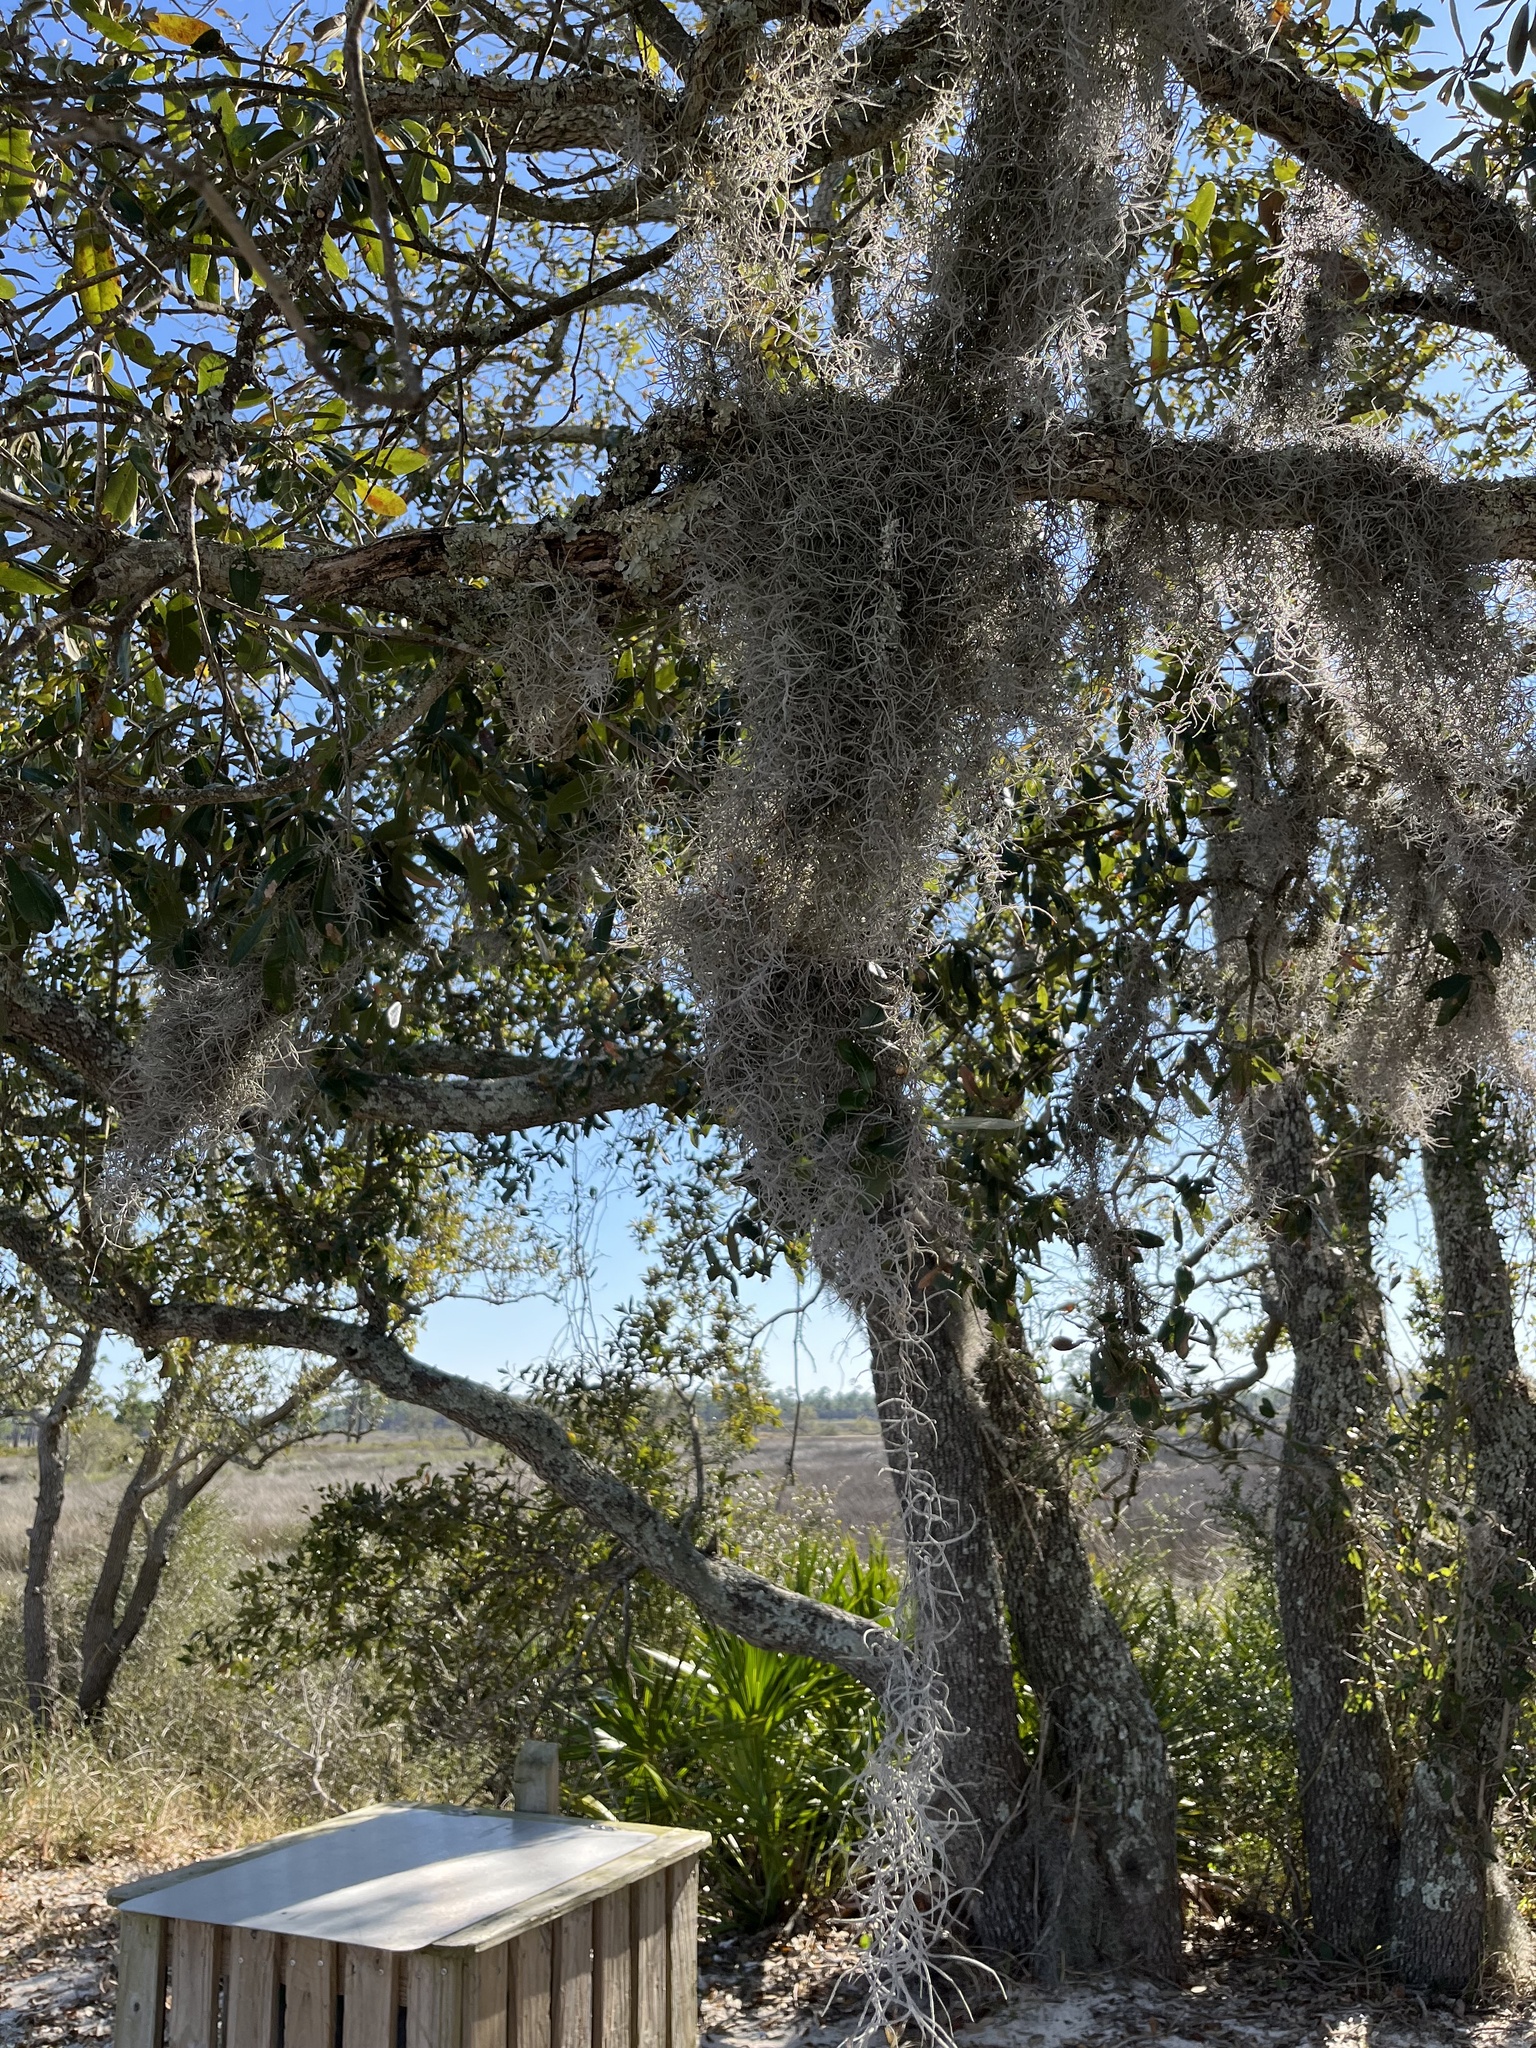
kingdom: Plantae
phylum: Tracheophyta
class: Liliopsida
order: Poales
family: Bromeliaceae
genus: Tillandsia
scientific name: Tillandsia usneoides
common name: Spanish moss
